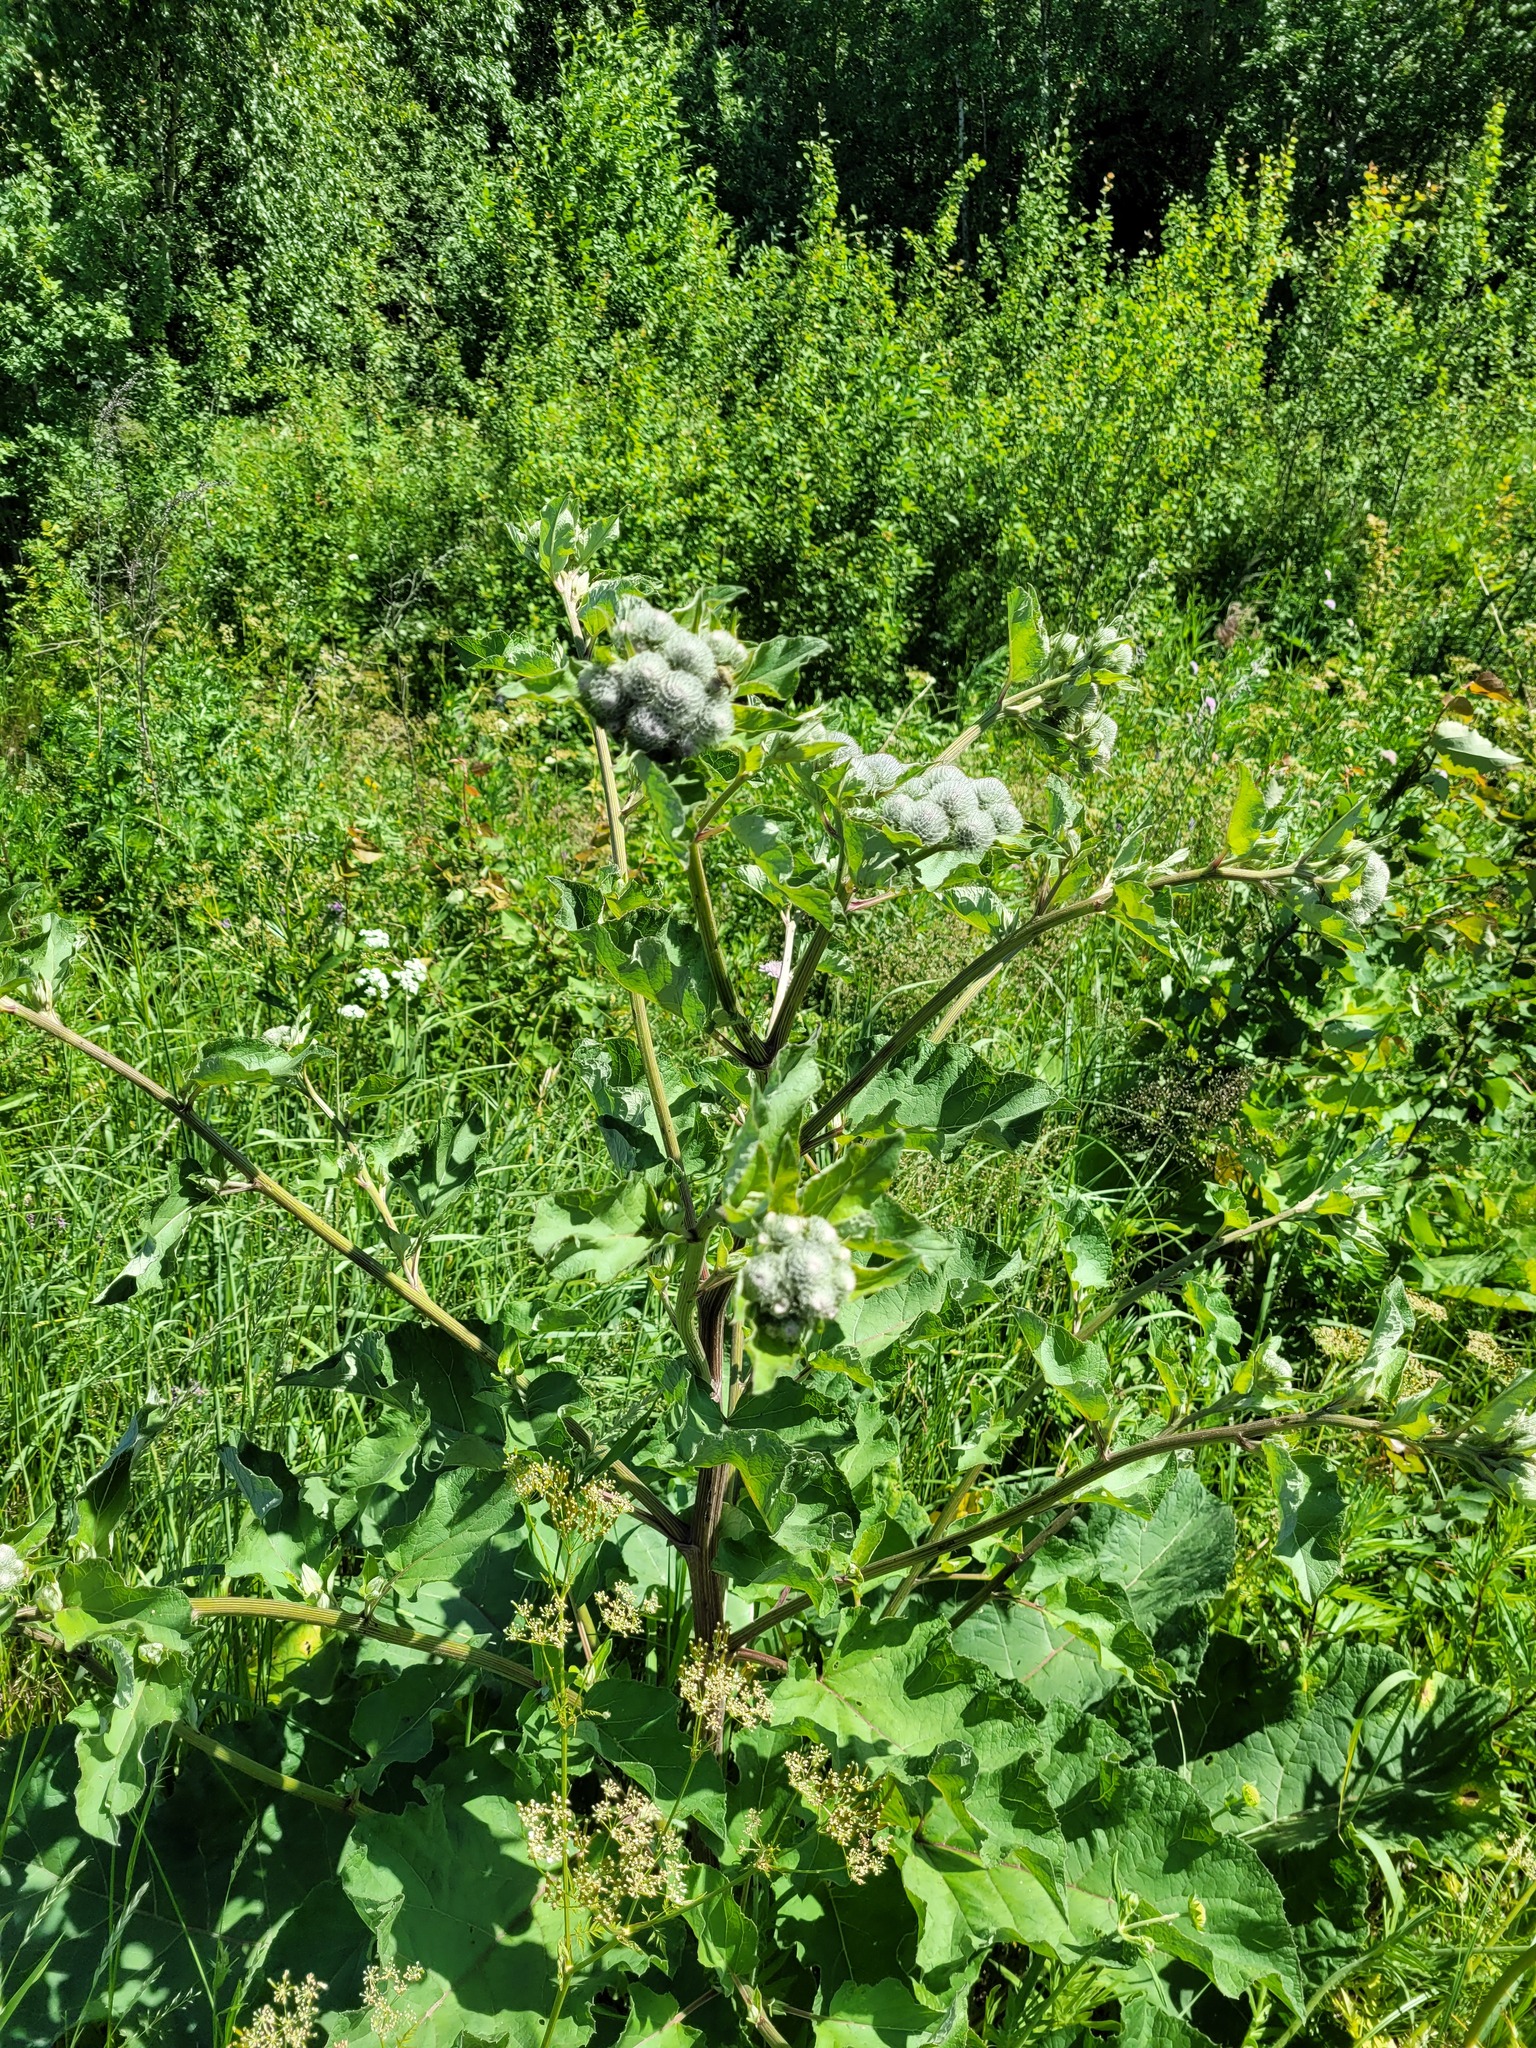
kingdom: Plantae
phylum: Tracheophyta
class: Magnoliopsida
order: Asterales
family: Asteraceae
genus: Arctium
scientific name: Arctium tomentosum
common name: Woolly burdock
